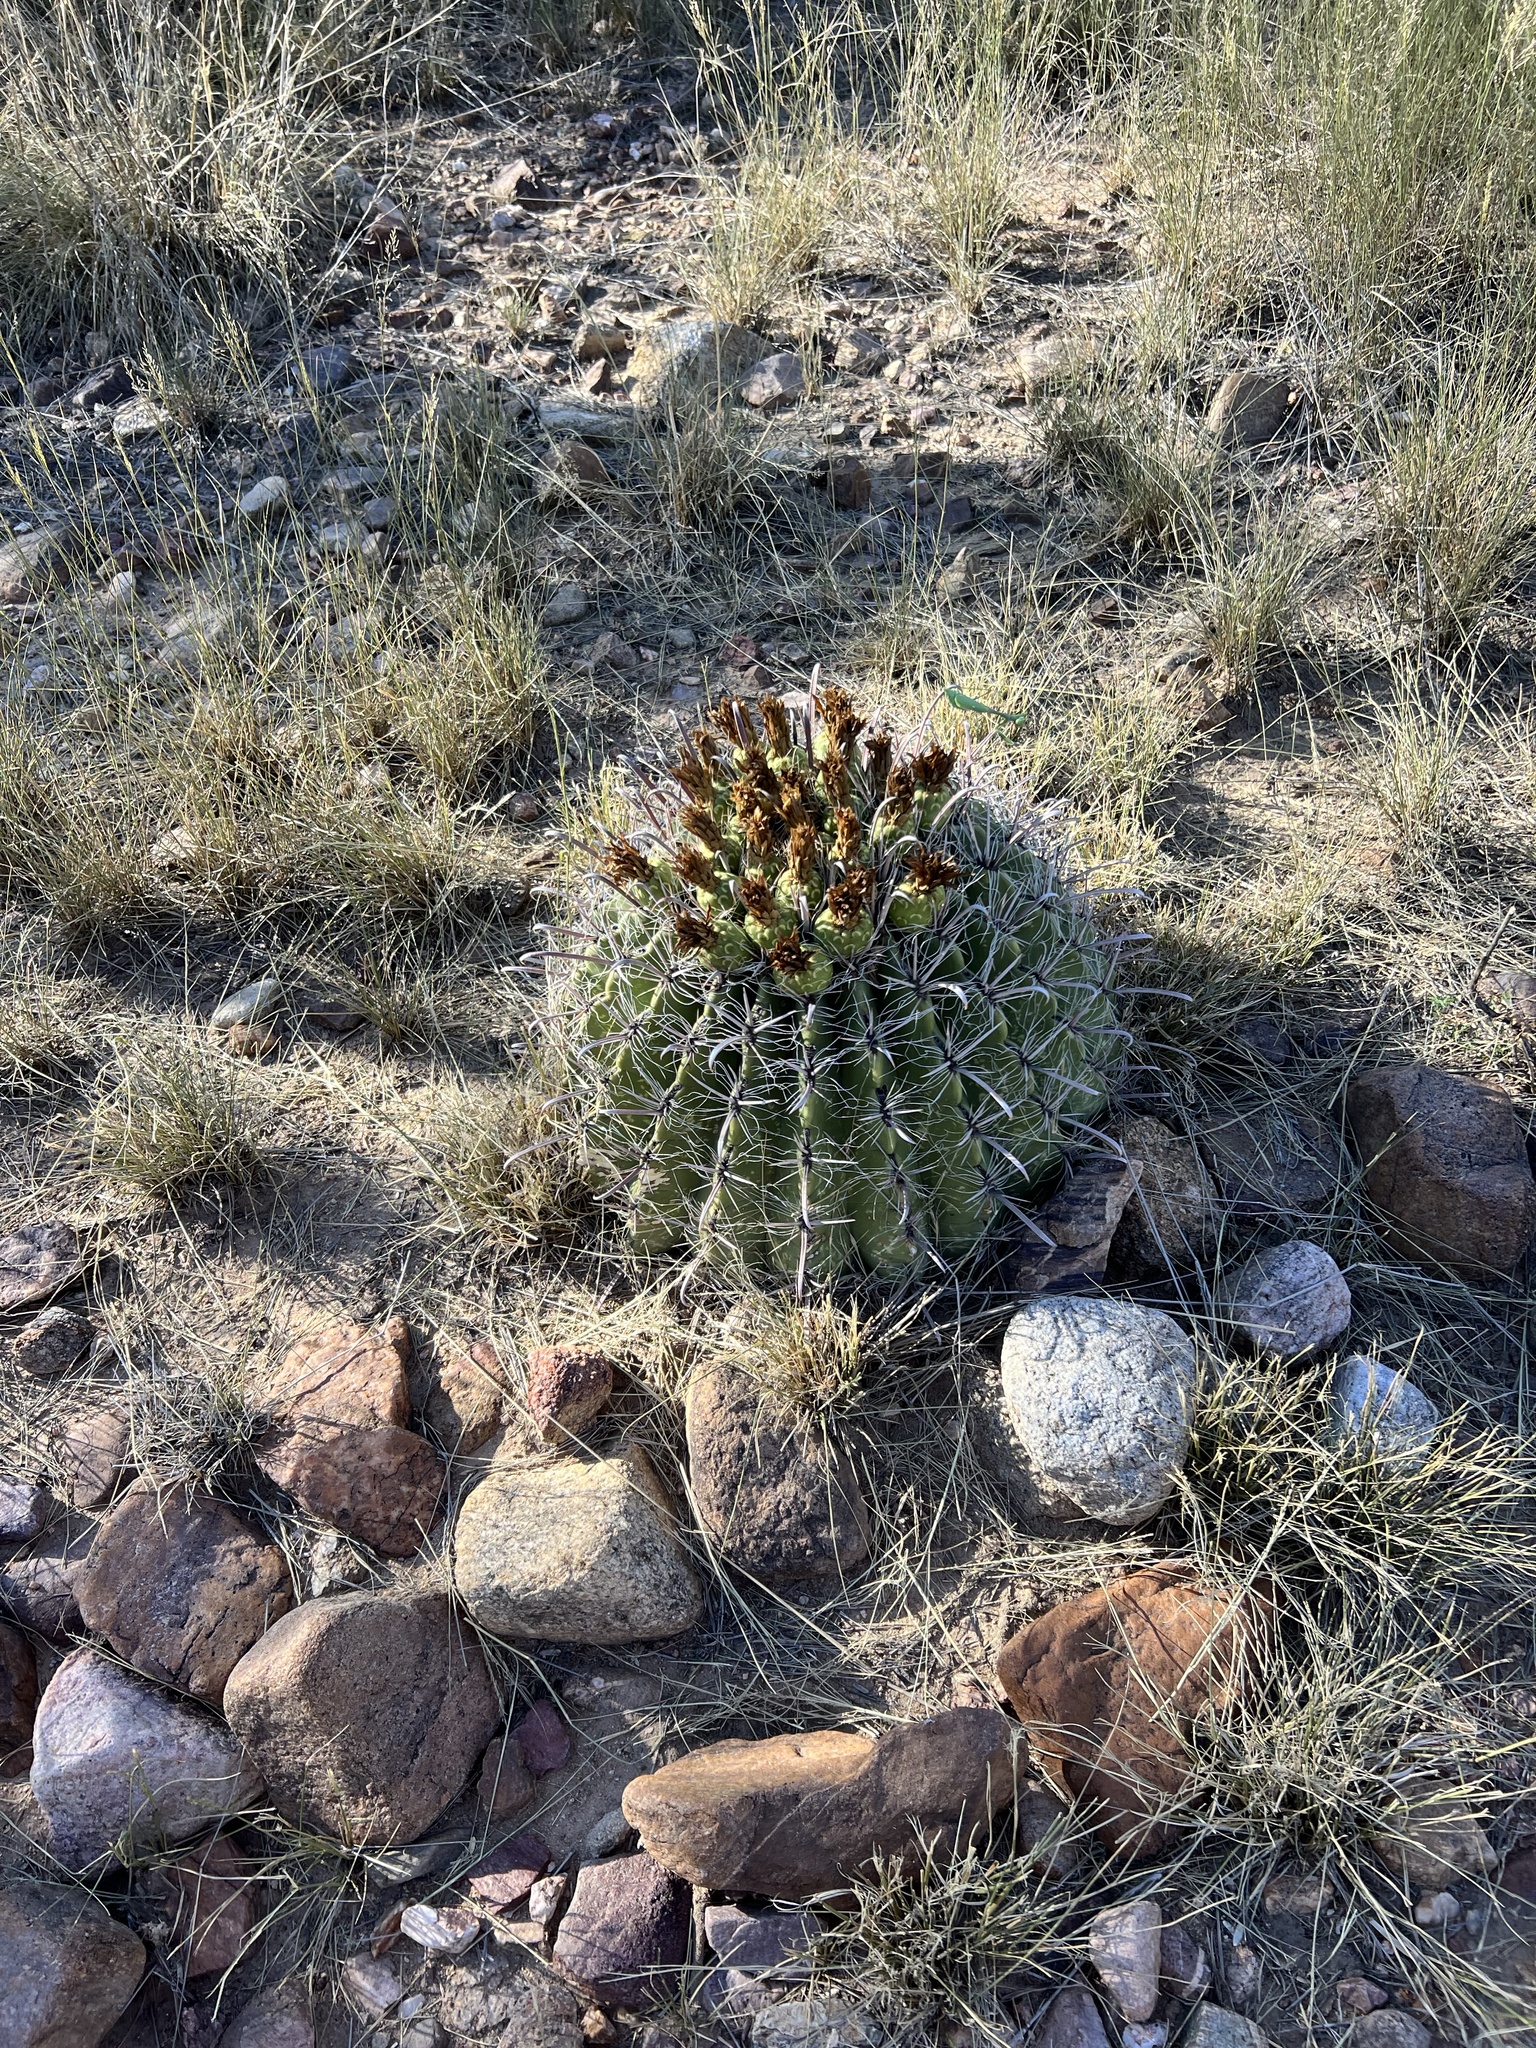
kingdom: Plantae
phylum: Tracheophyta
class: Magnoliopsida
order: Caryophyllales
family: Cactaceae
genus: Ferocactus
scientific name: Ferocactus wislizeni
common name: Candy barrel cactus
